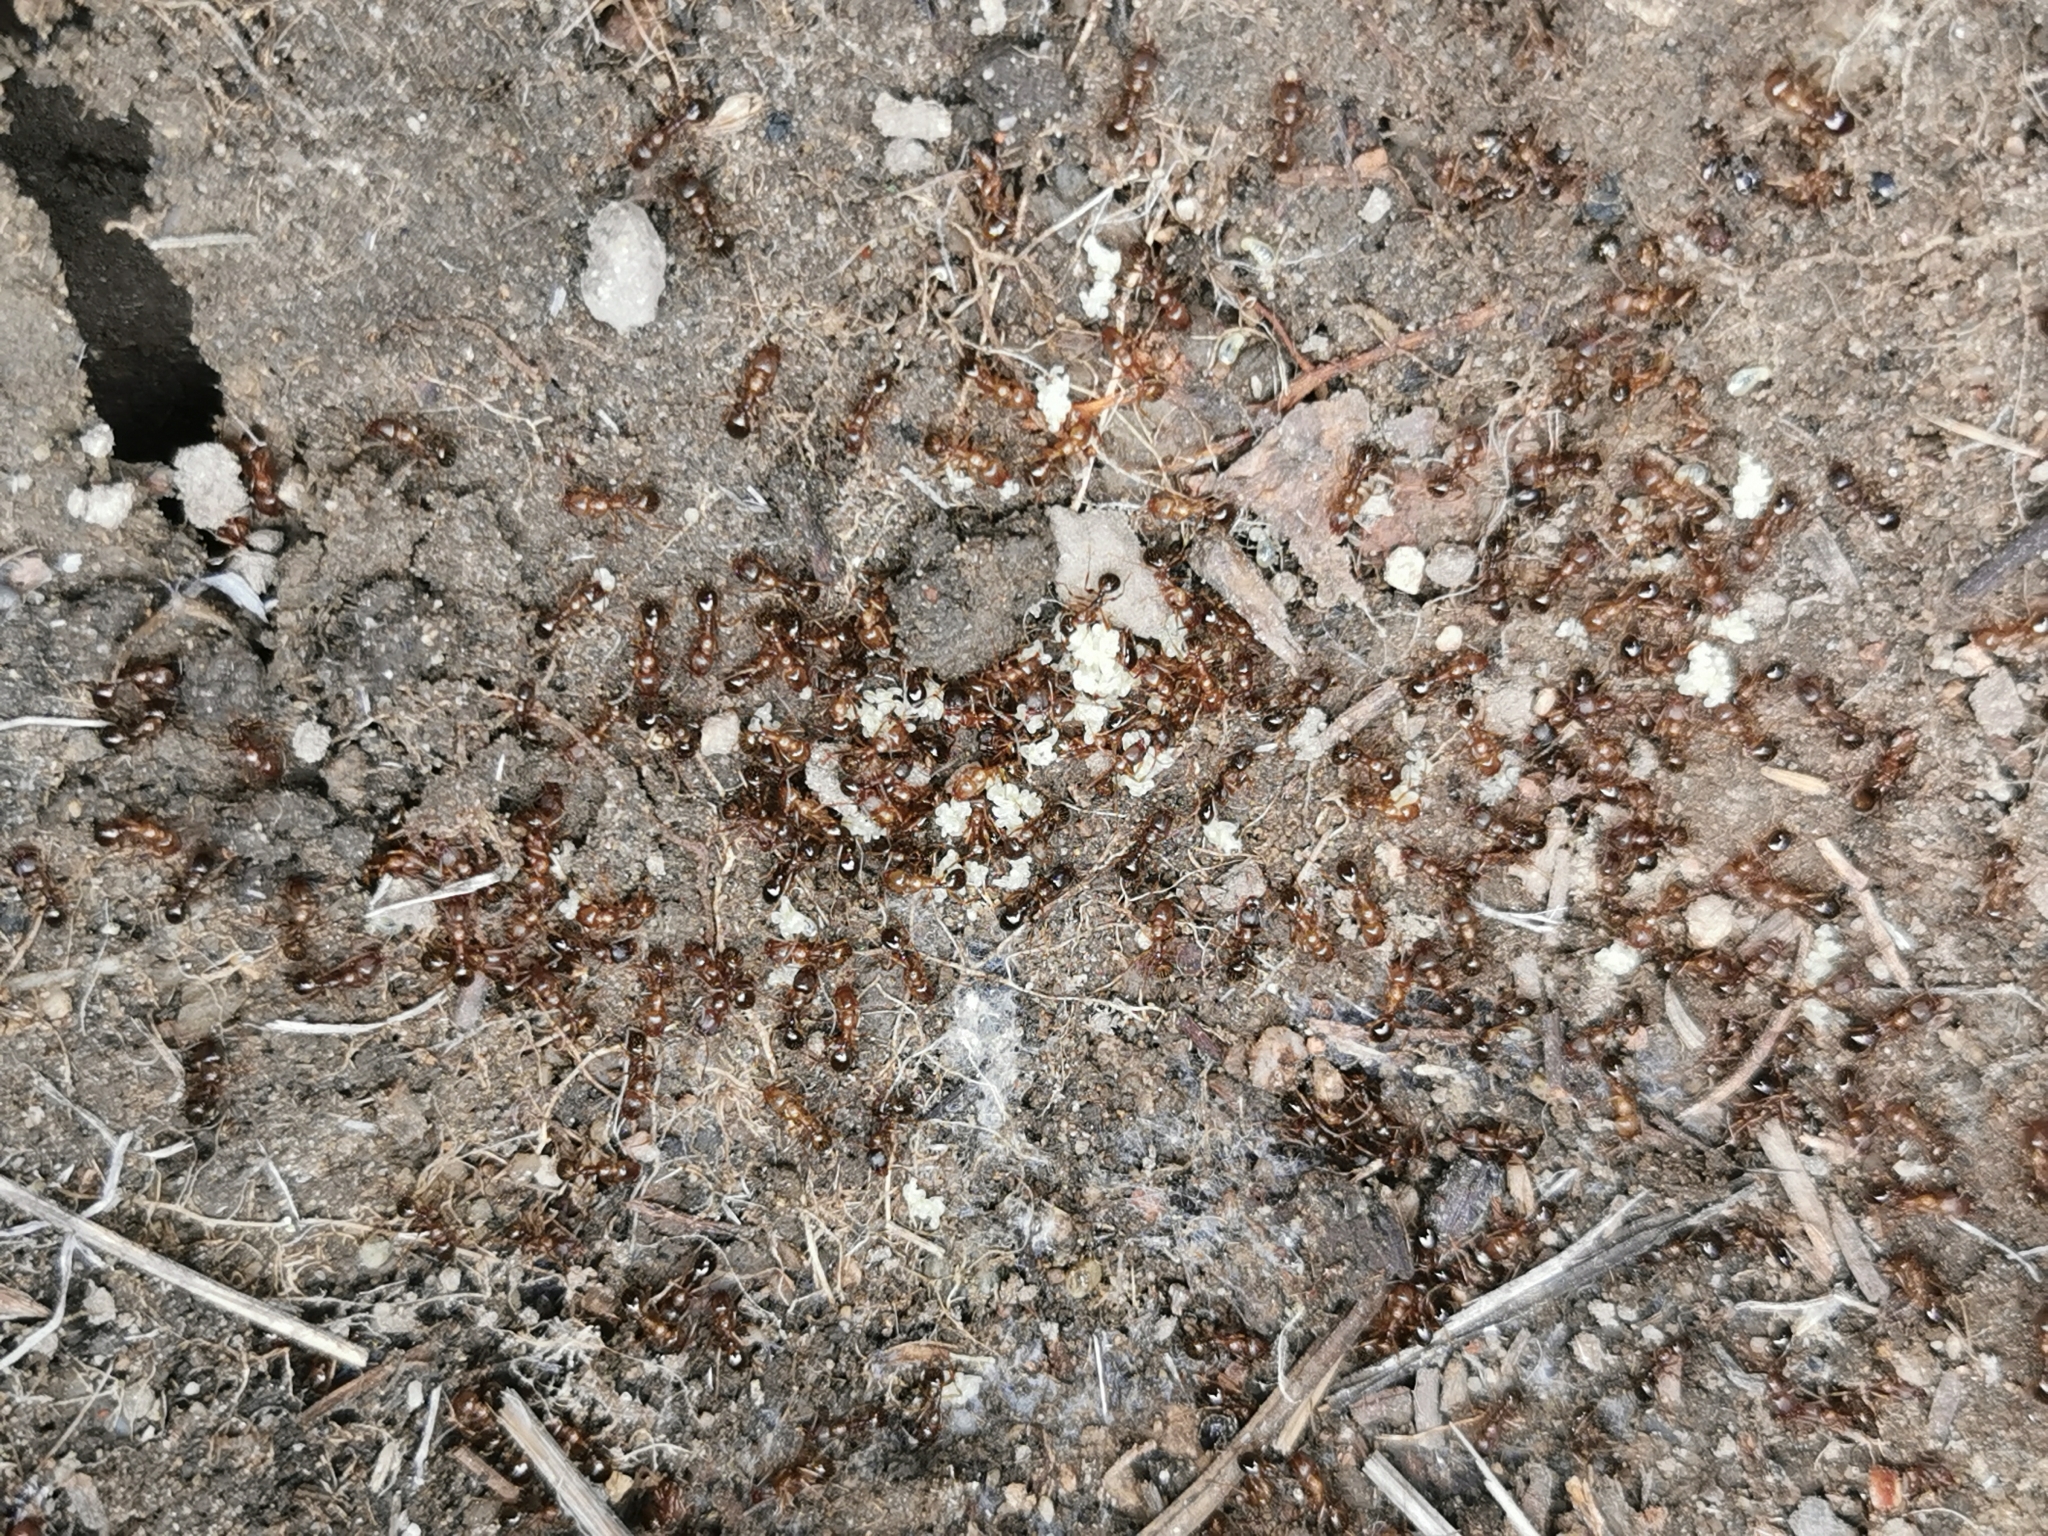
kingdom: Animalia
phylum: Arthropoda
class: Insecta
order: Hymenoptera
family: Formicidae
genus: Aphaenogaster
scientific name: Aphaenogaster occidentalis
